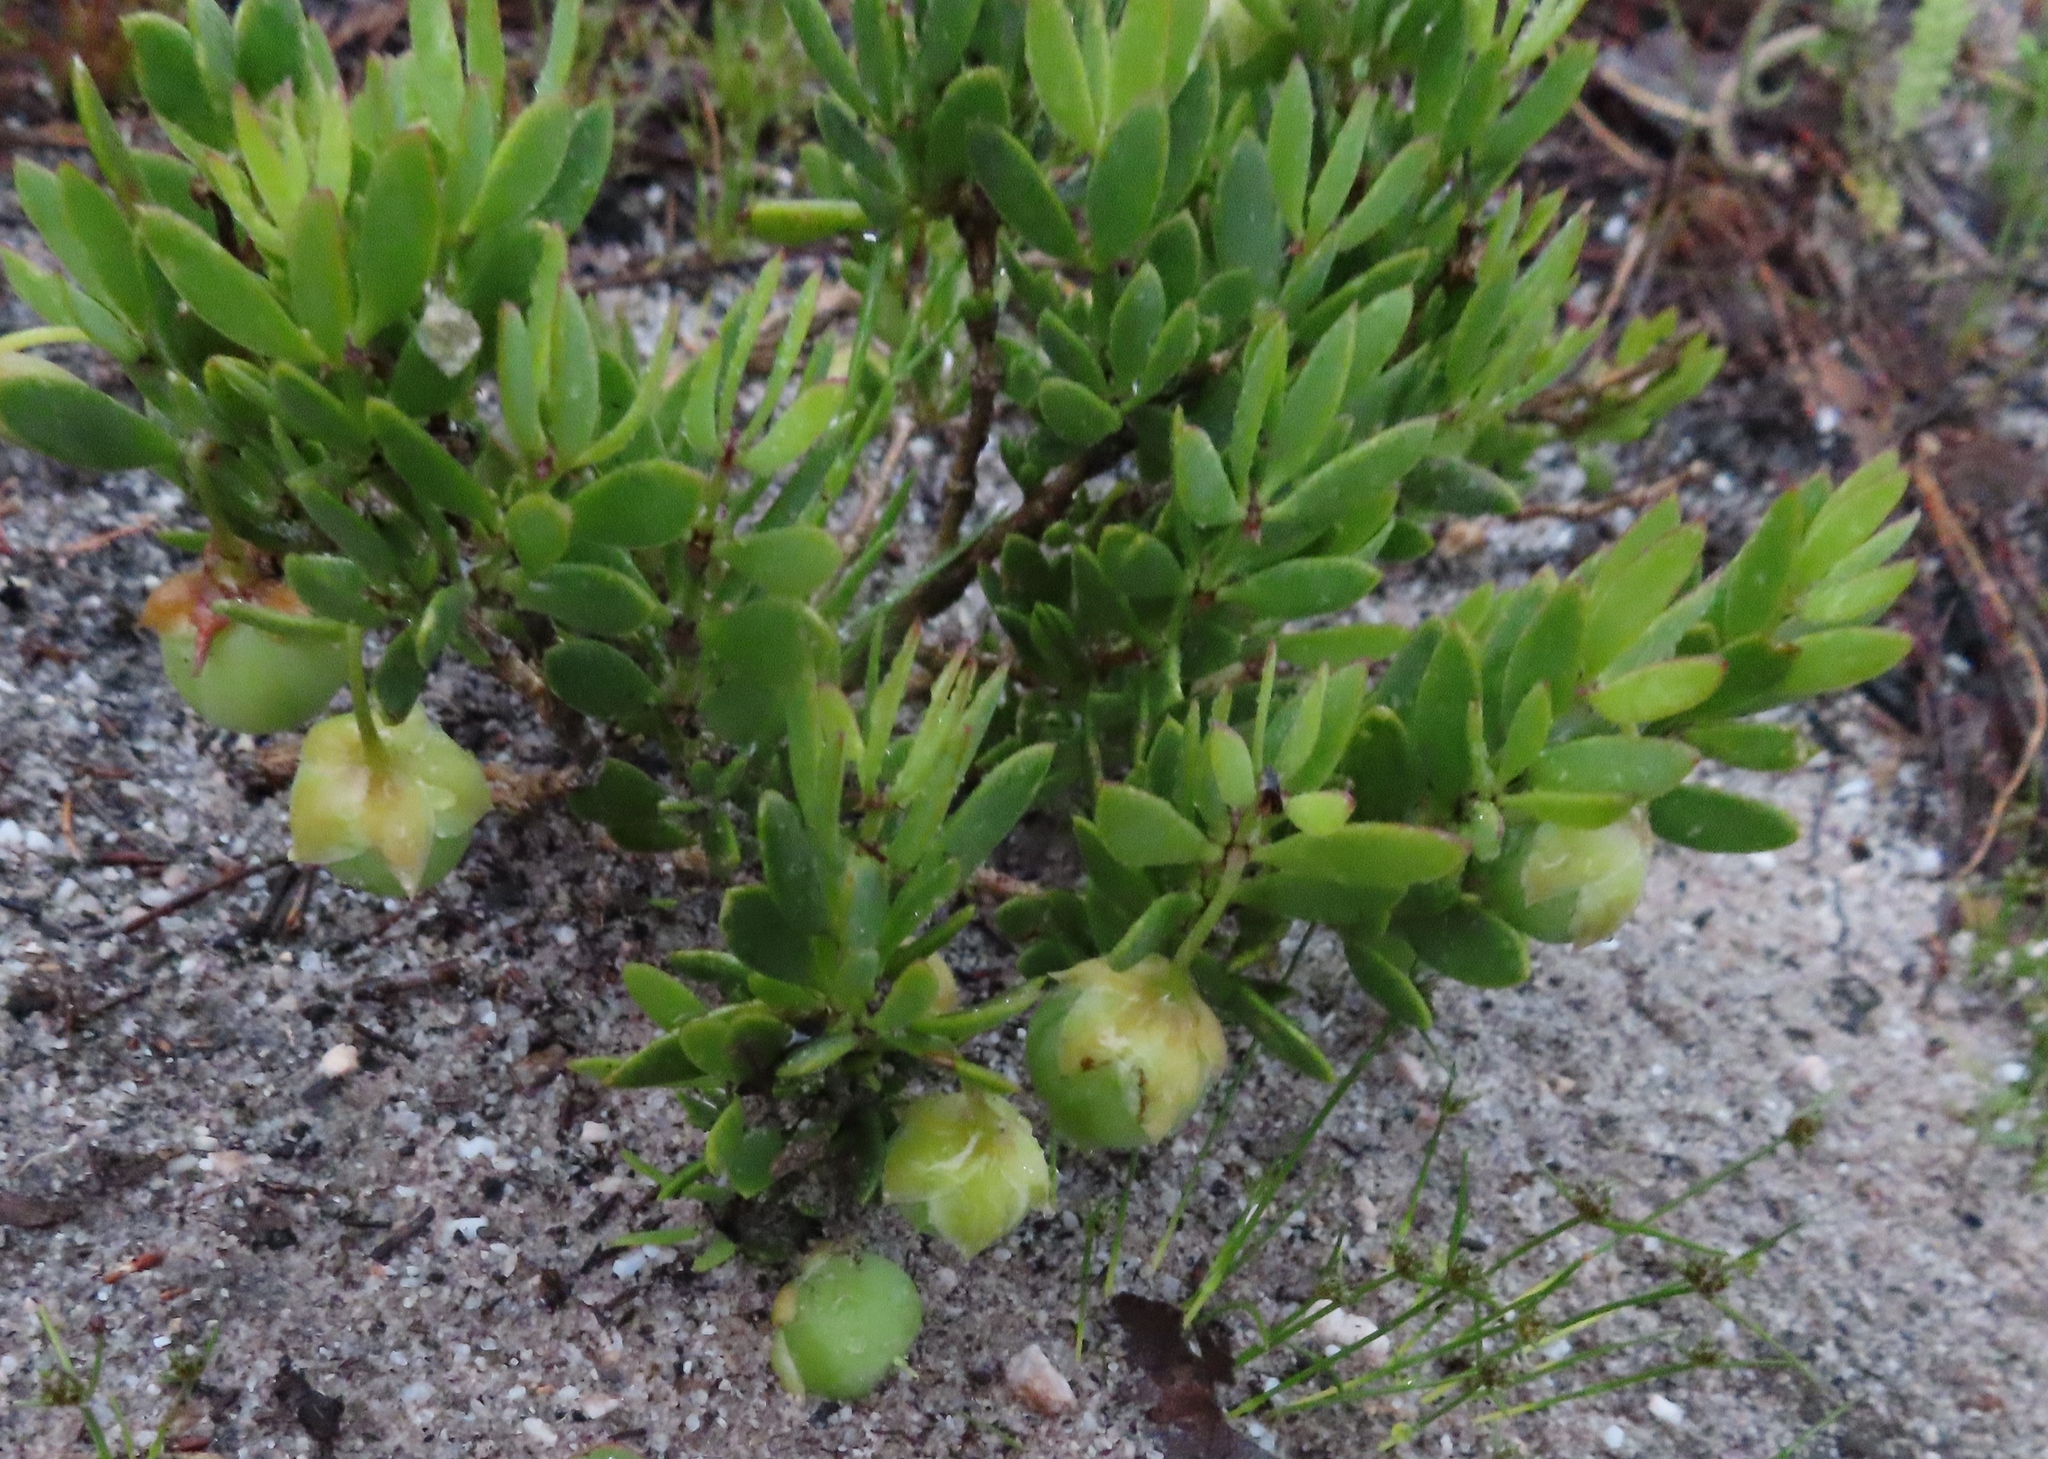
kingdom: Plantae
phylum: Tracheophyta
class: Magnoliopsida
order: Zygophyllales
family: Zygophyllaceae
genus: Roepera
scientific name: Roepera flexuosa
